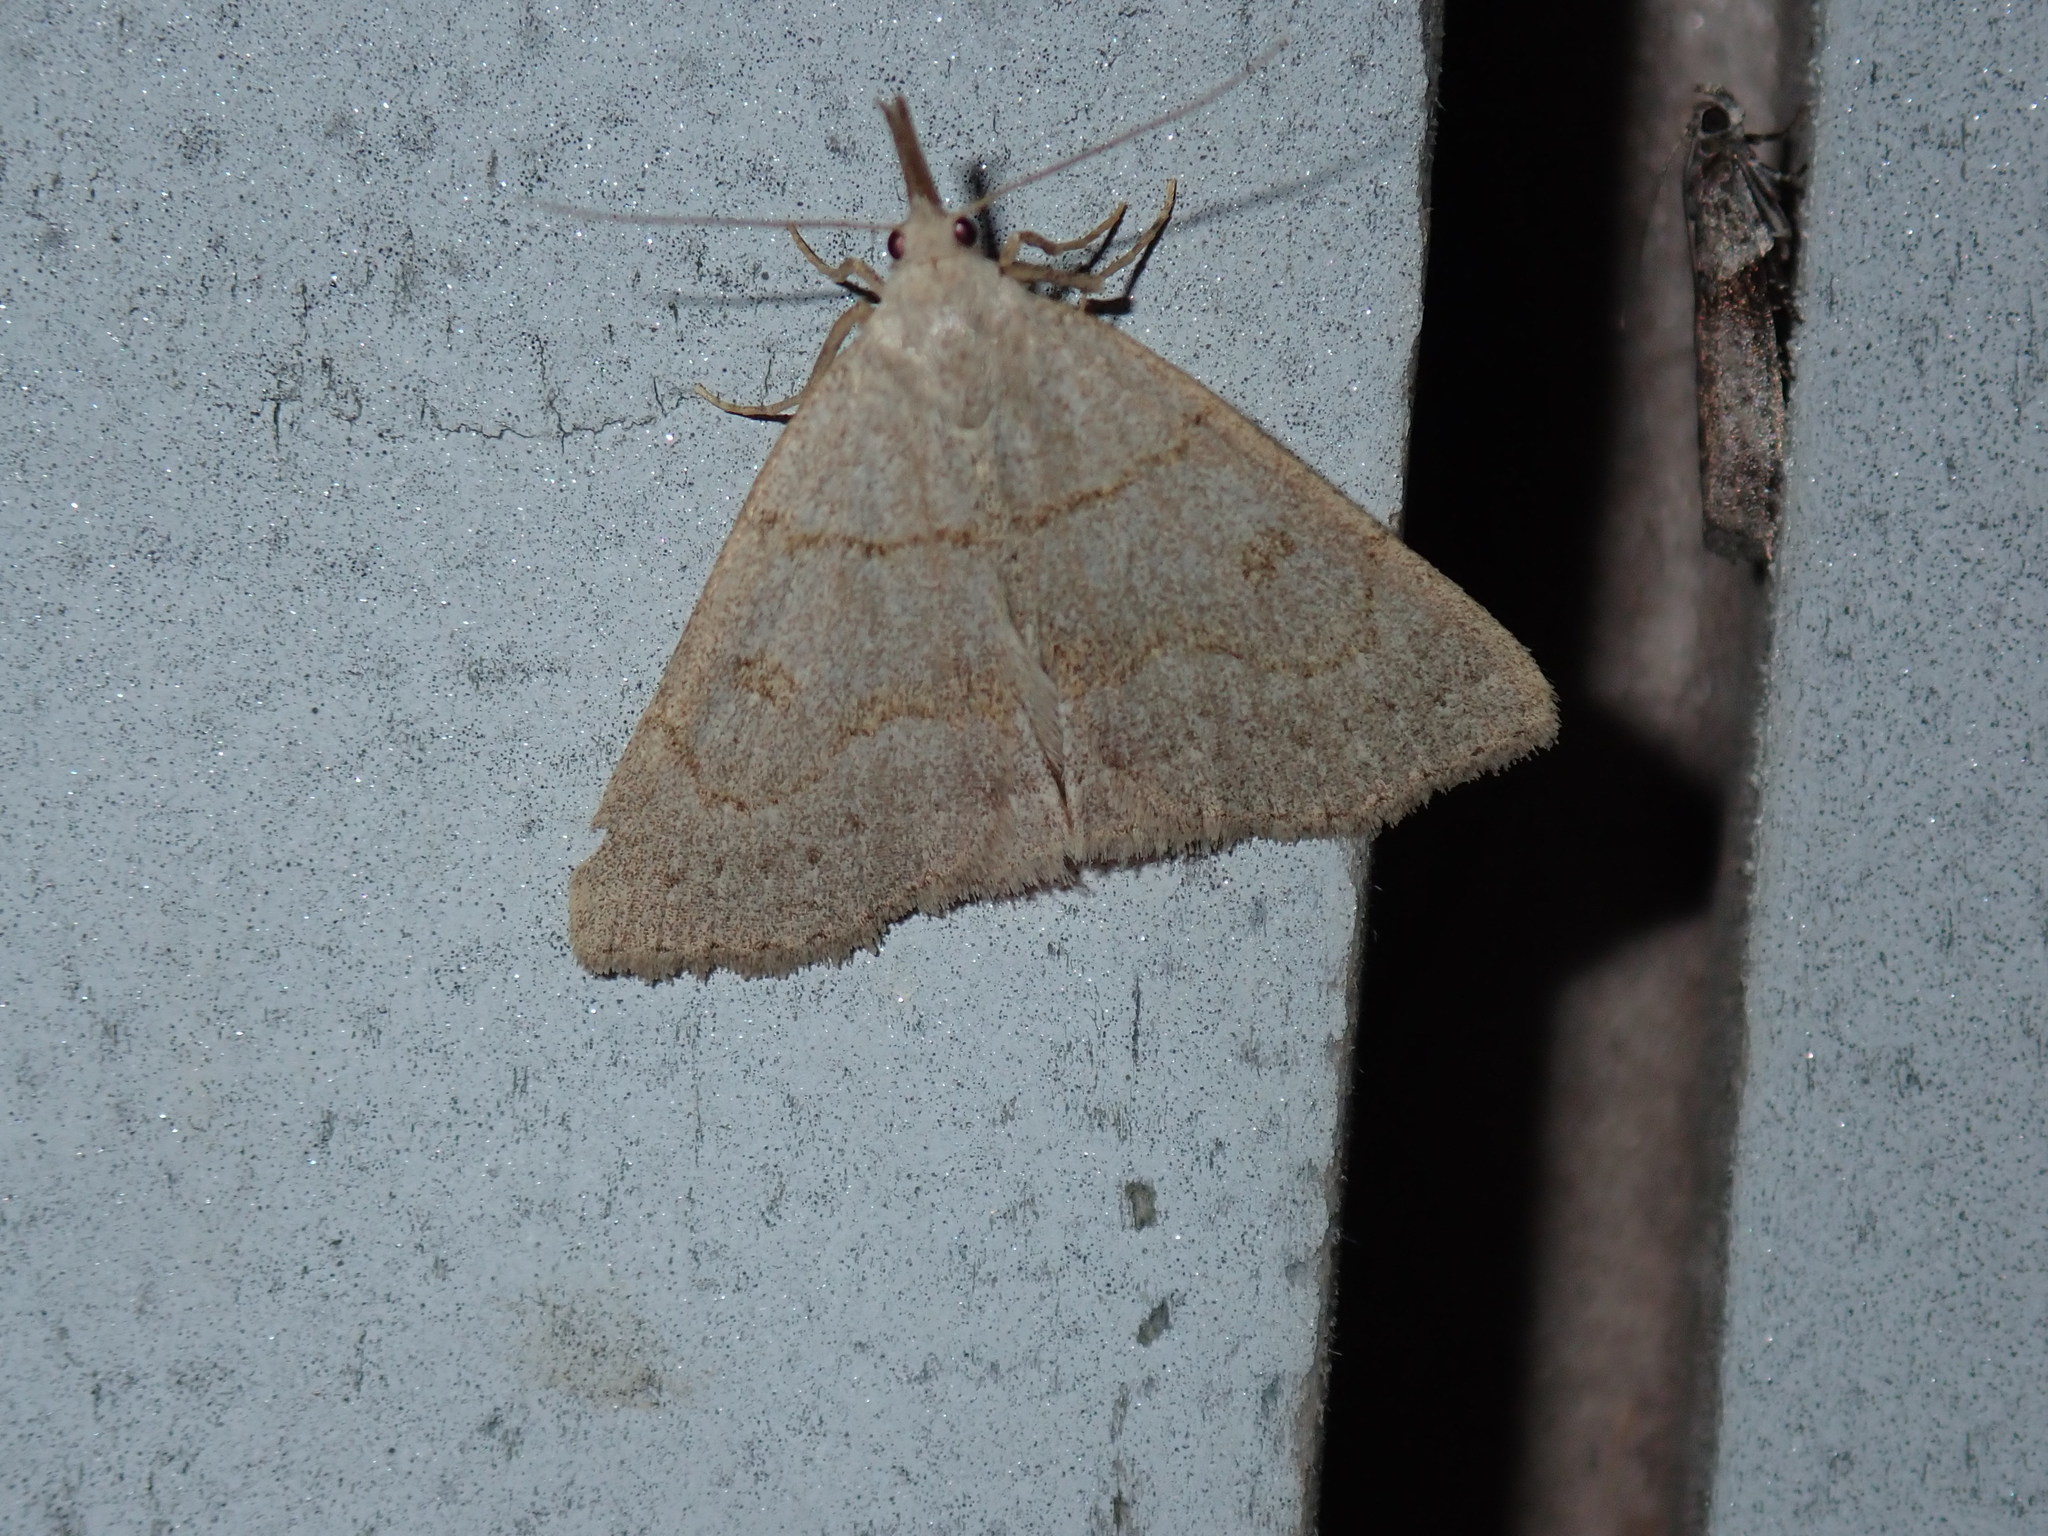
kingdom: Animalia
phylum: Arthropoda
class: Insecta
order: Lepidoptera
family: Erebidae
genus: Macrochilo
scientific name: Macrochilo morbidalis
